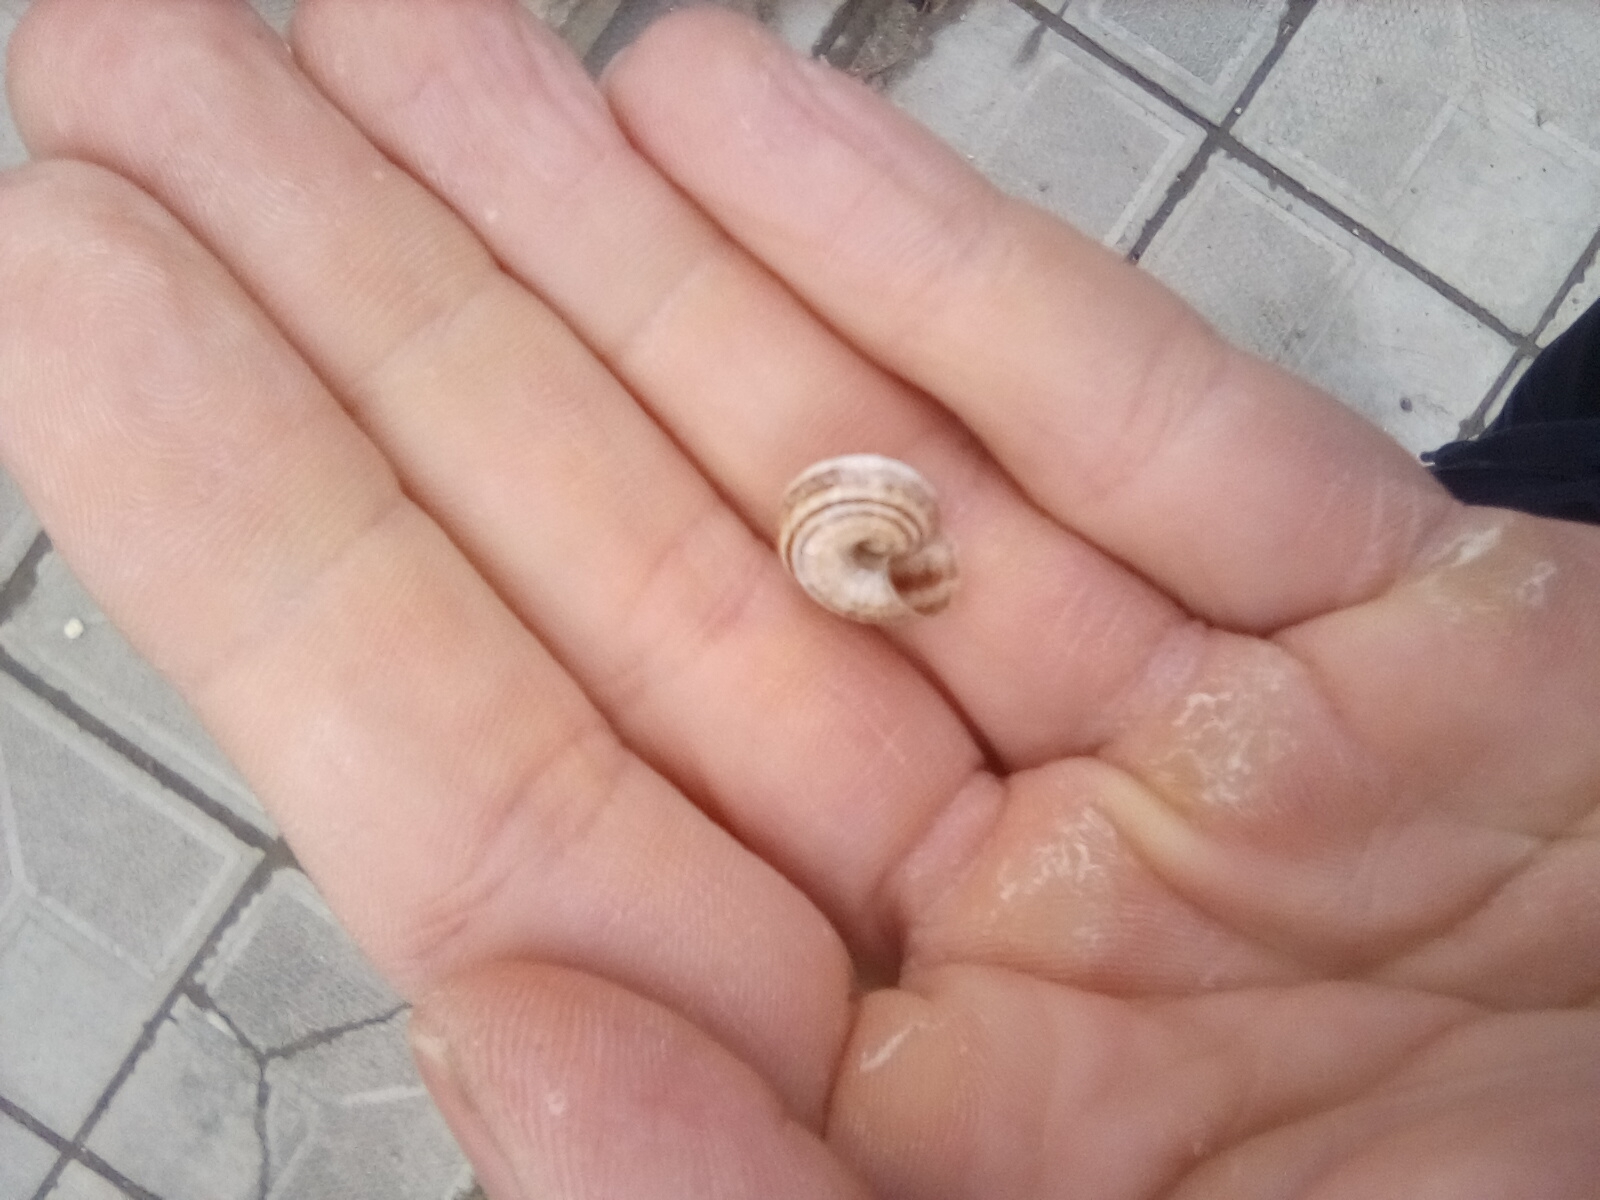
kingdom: Animalia
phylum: Mollusca
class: Gastropoda
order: Stylommatophora
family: Geomitridae
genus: Xeropicta
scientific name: Xeropicta krynickii
